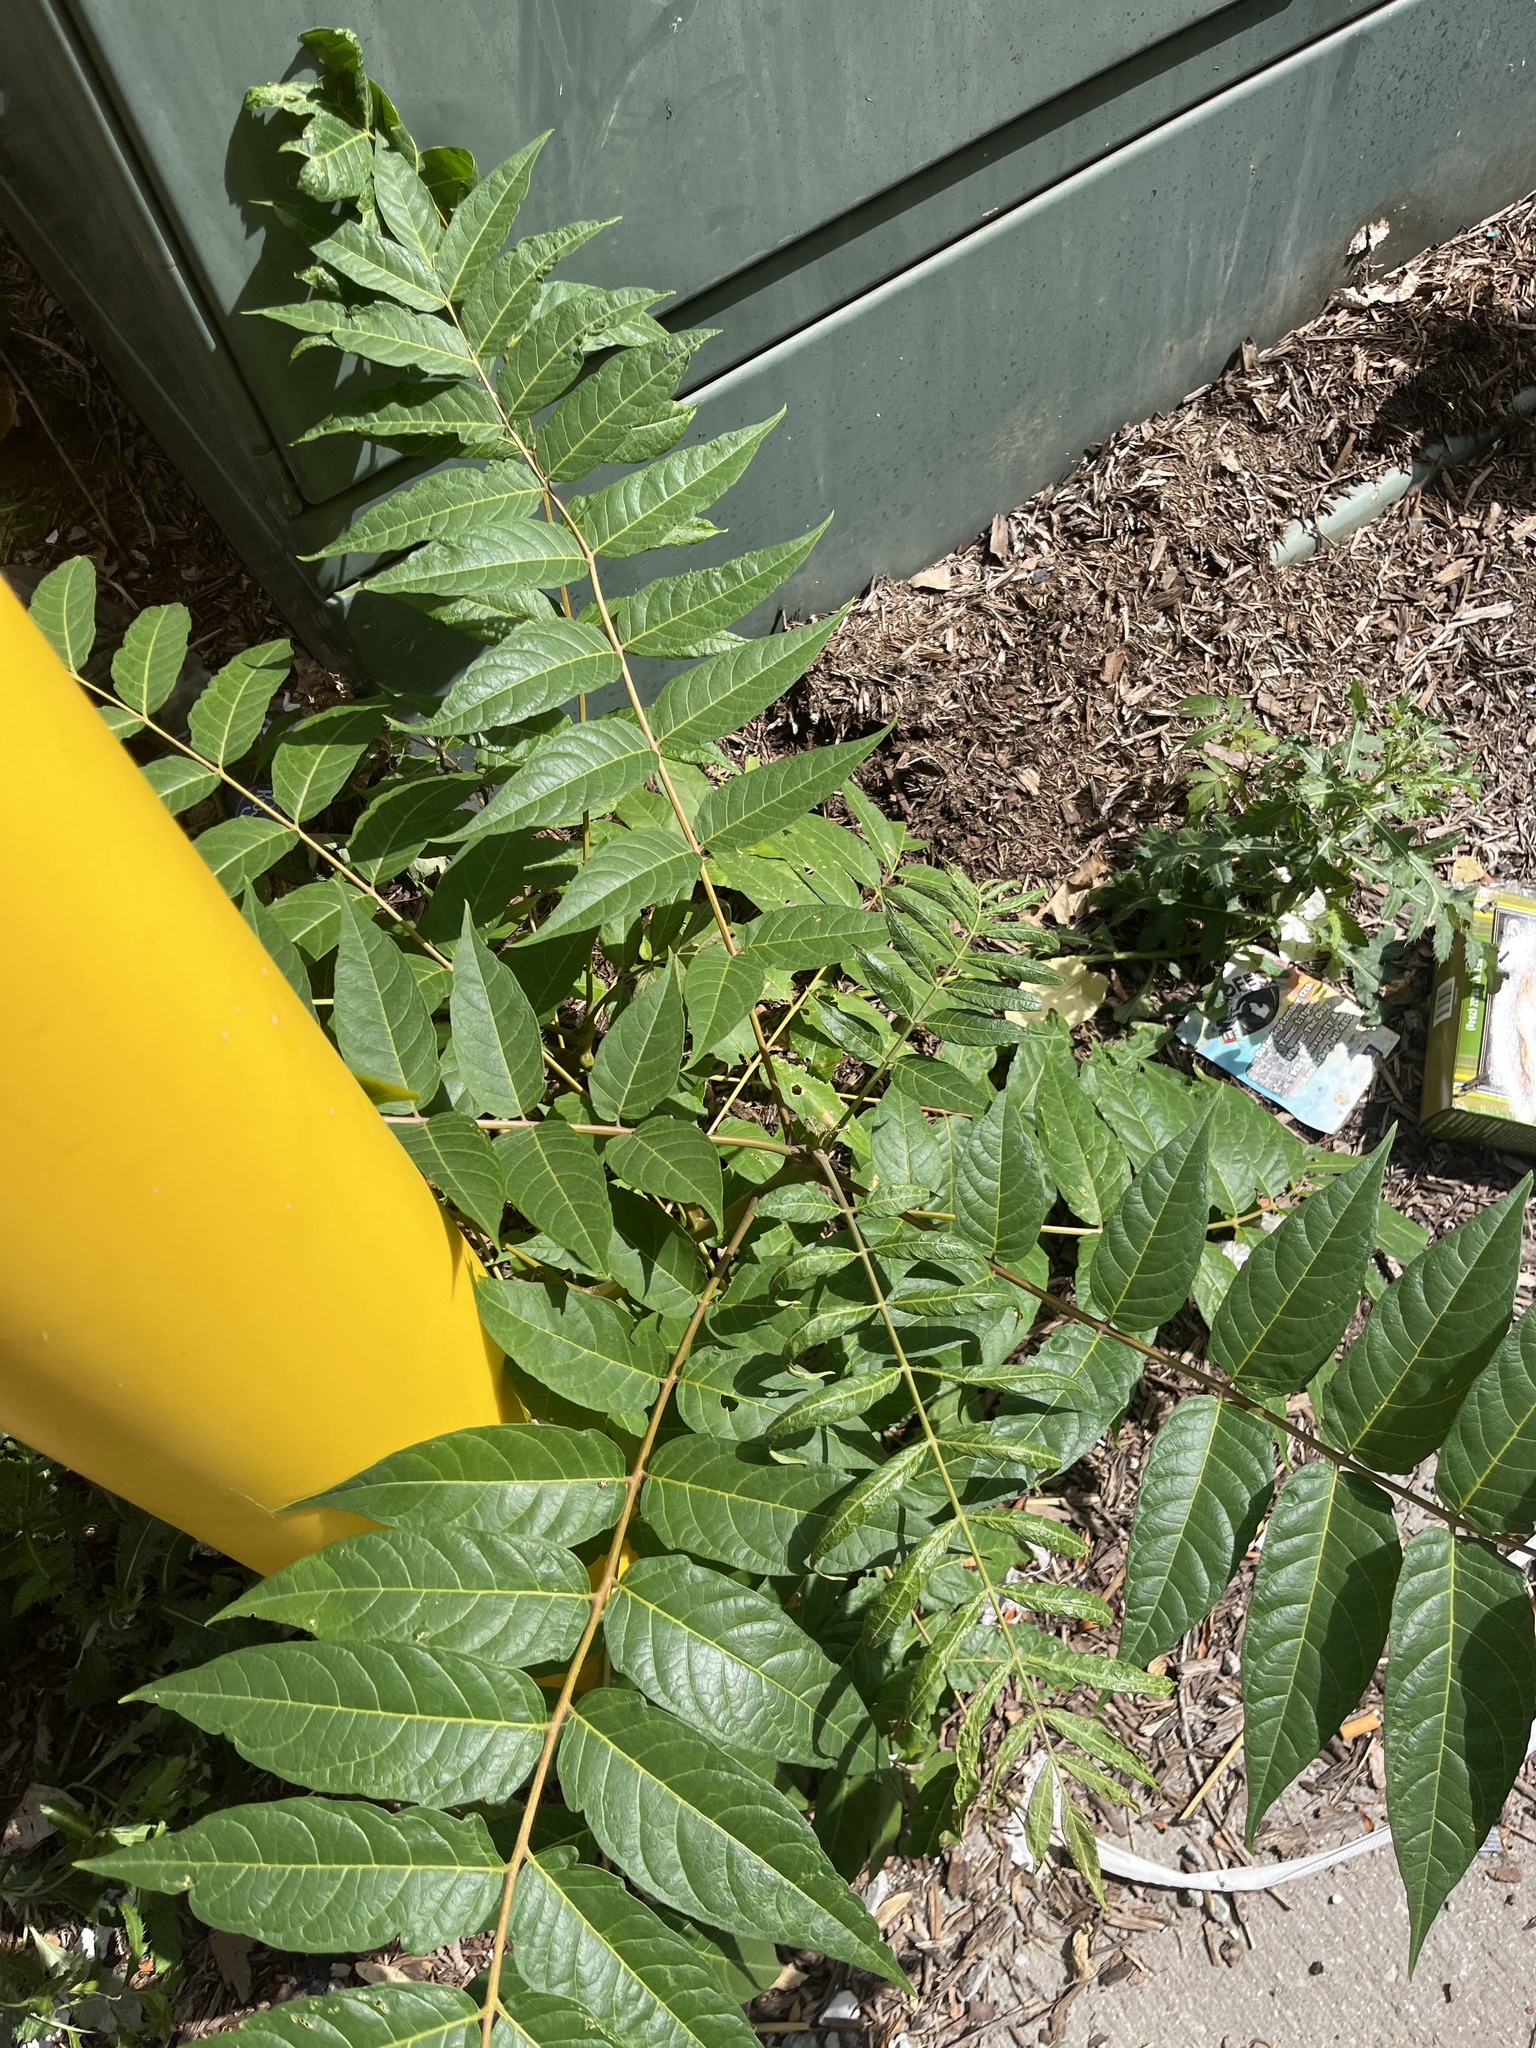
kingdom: Plantae
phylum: Tracheophyta
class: Magnoliopsida
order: Sapindales
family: Simaroubaceae
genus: Ailanthus
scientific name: Ailanthus altissima
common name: Tree-of-heaven
